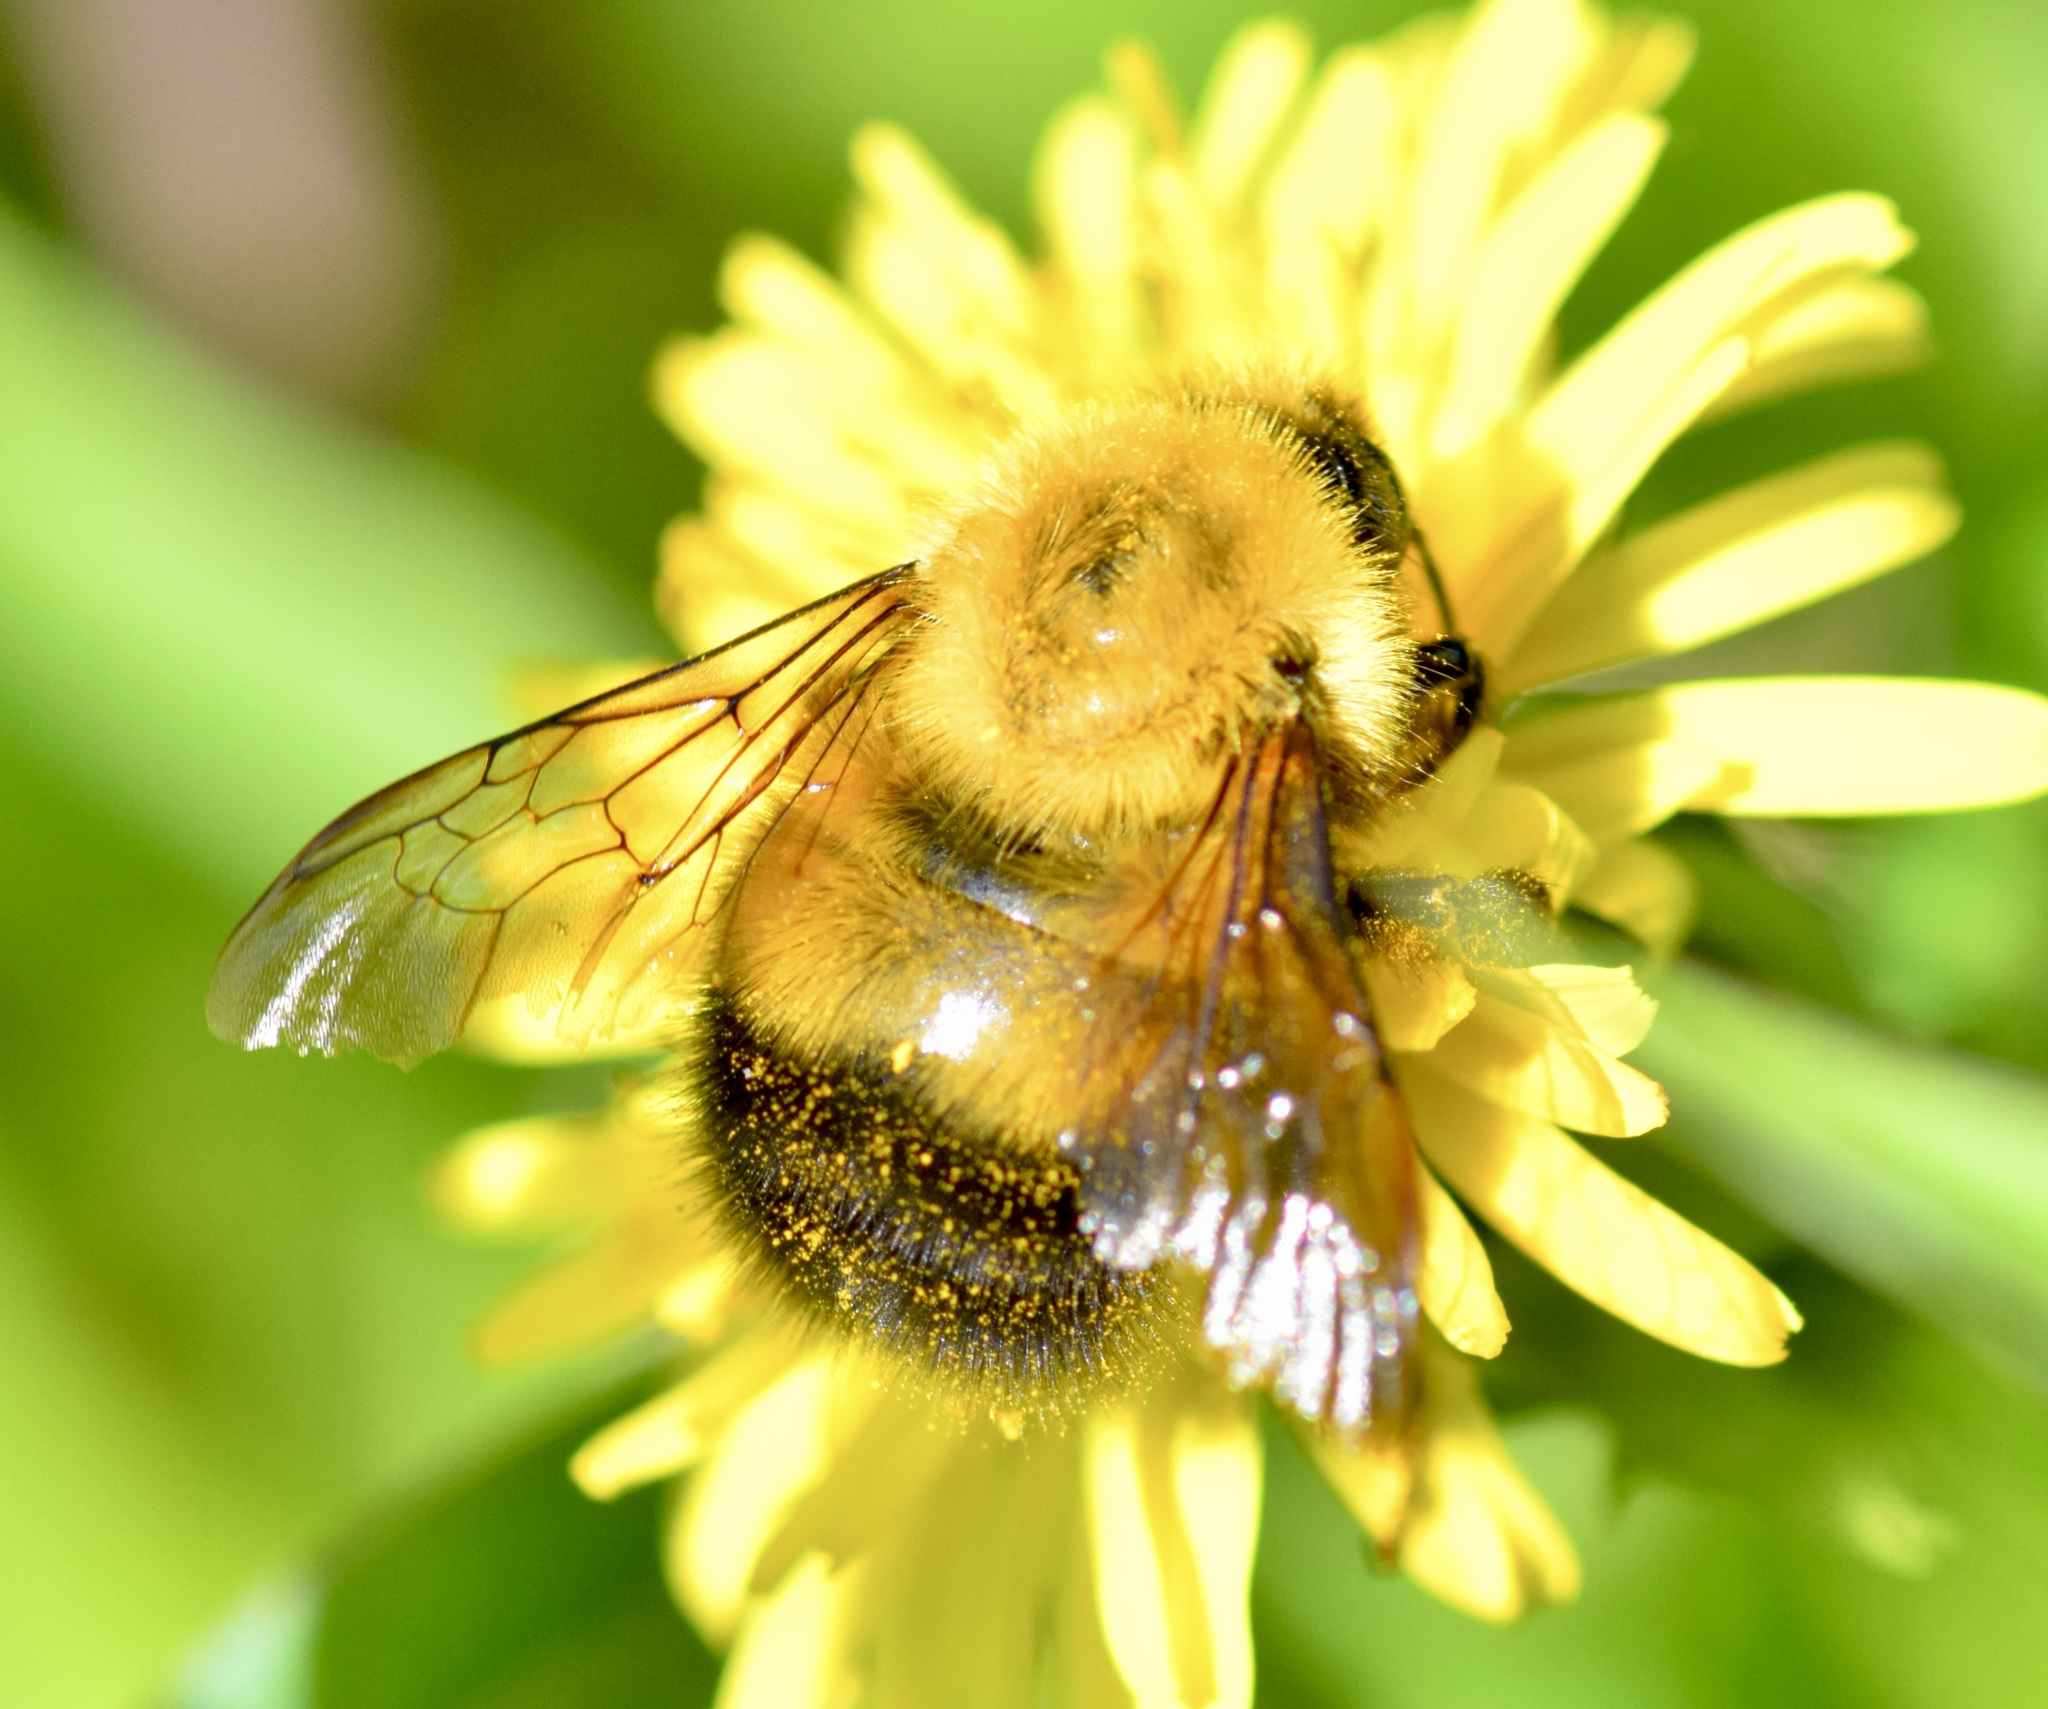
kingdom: Animalia
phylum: Arthropoda
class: Insecta
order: Hymenoptera
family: Apidae
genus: Bombus
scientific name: Bombus perplexus
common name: Confusing bumble bee
